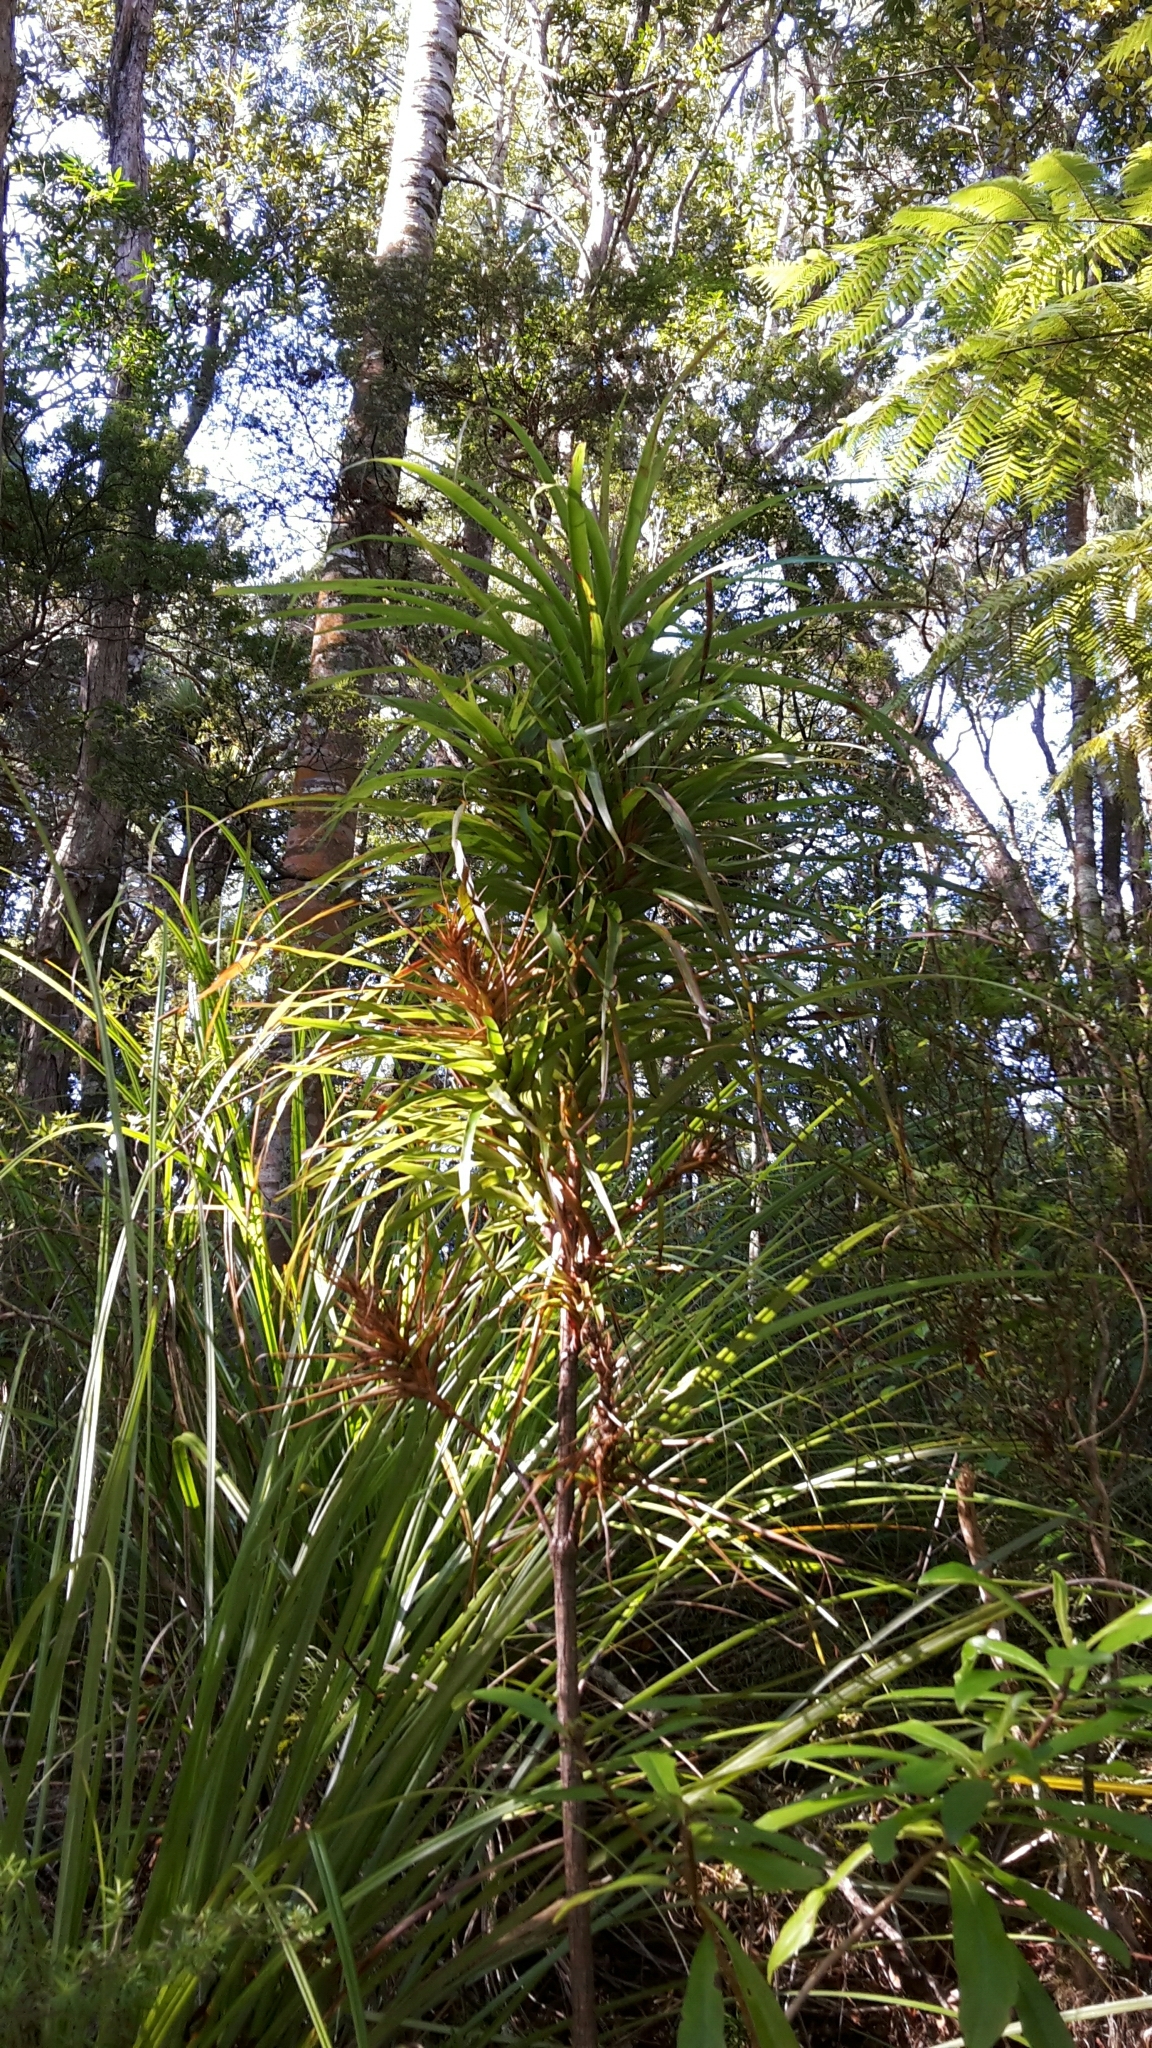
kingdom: Plantae
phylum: Tracheophyta
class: Magnoliopsida
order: Ericales
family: Ericaceae
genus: Dracophyllum
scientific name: Dracophyllum latifolium
